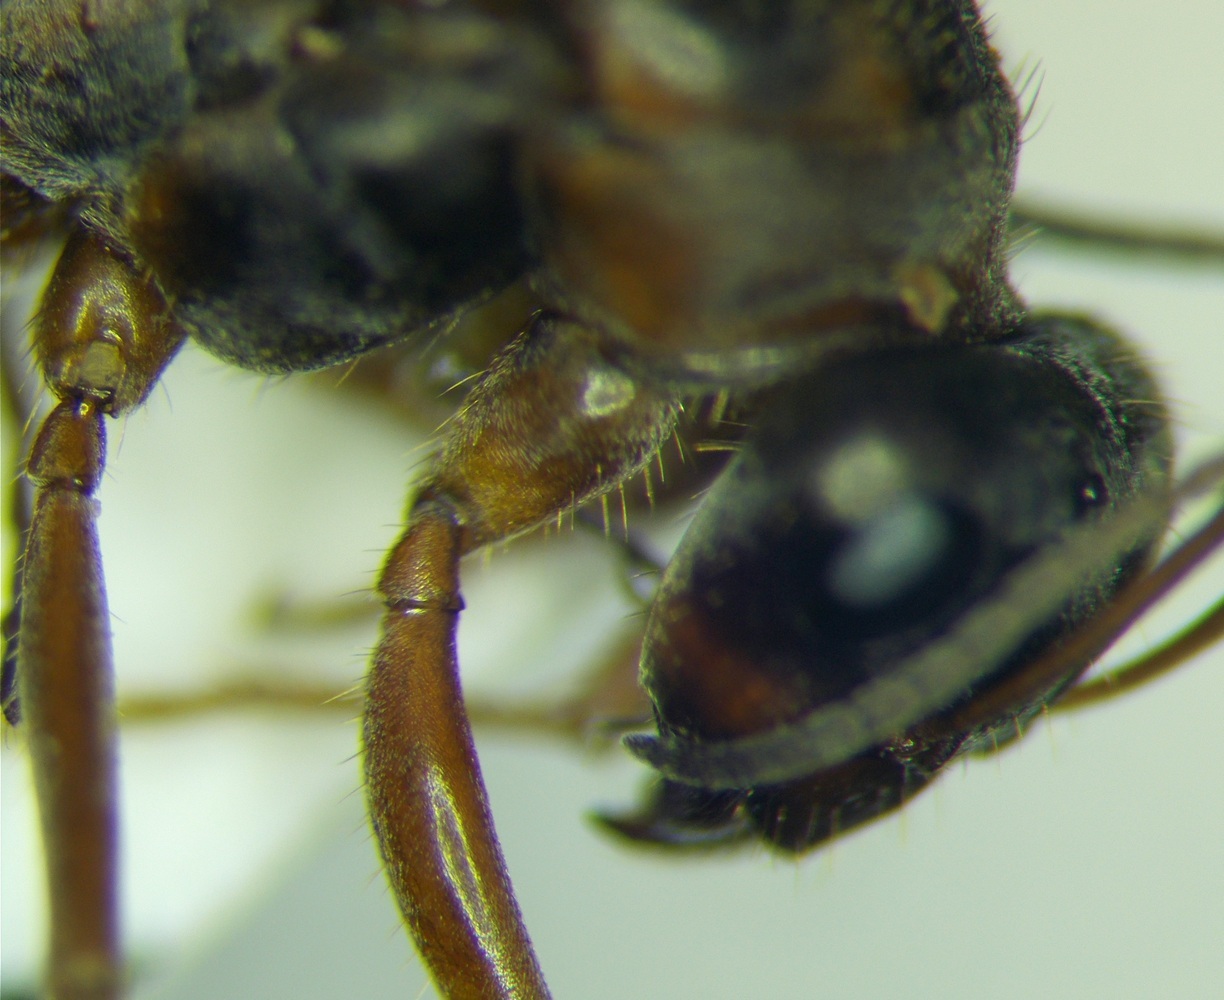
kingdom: Animalia
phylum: Arthropoda
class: Insecta
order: Hymenoptera
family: Formicidae
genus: Formica
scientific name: Formica cinerea
